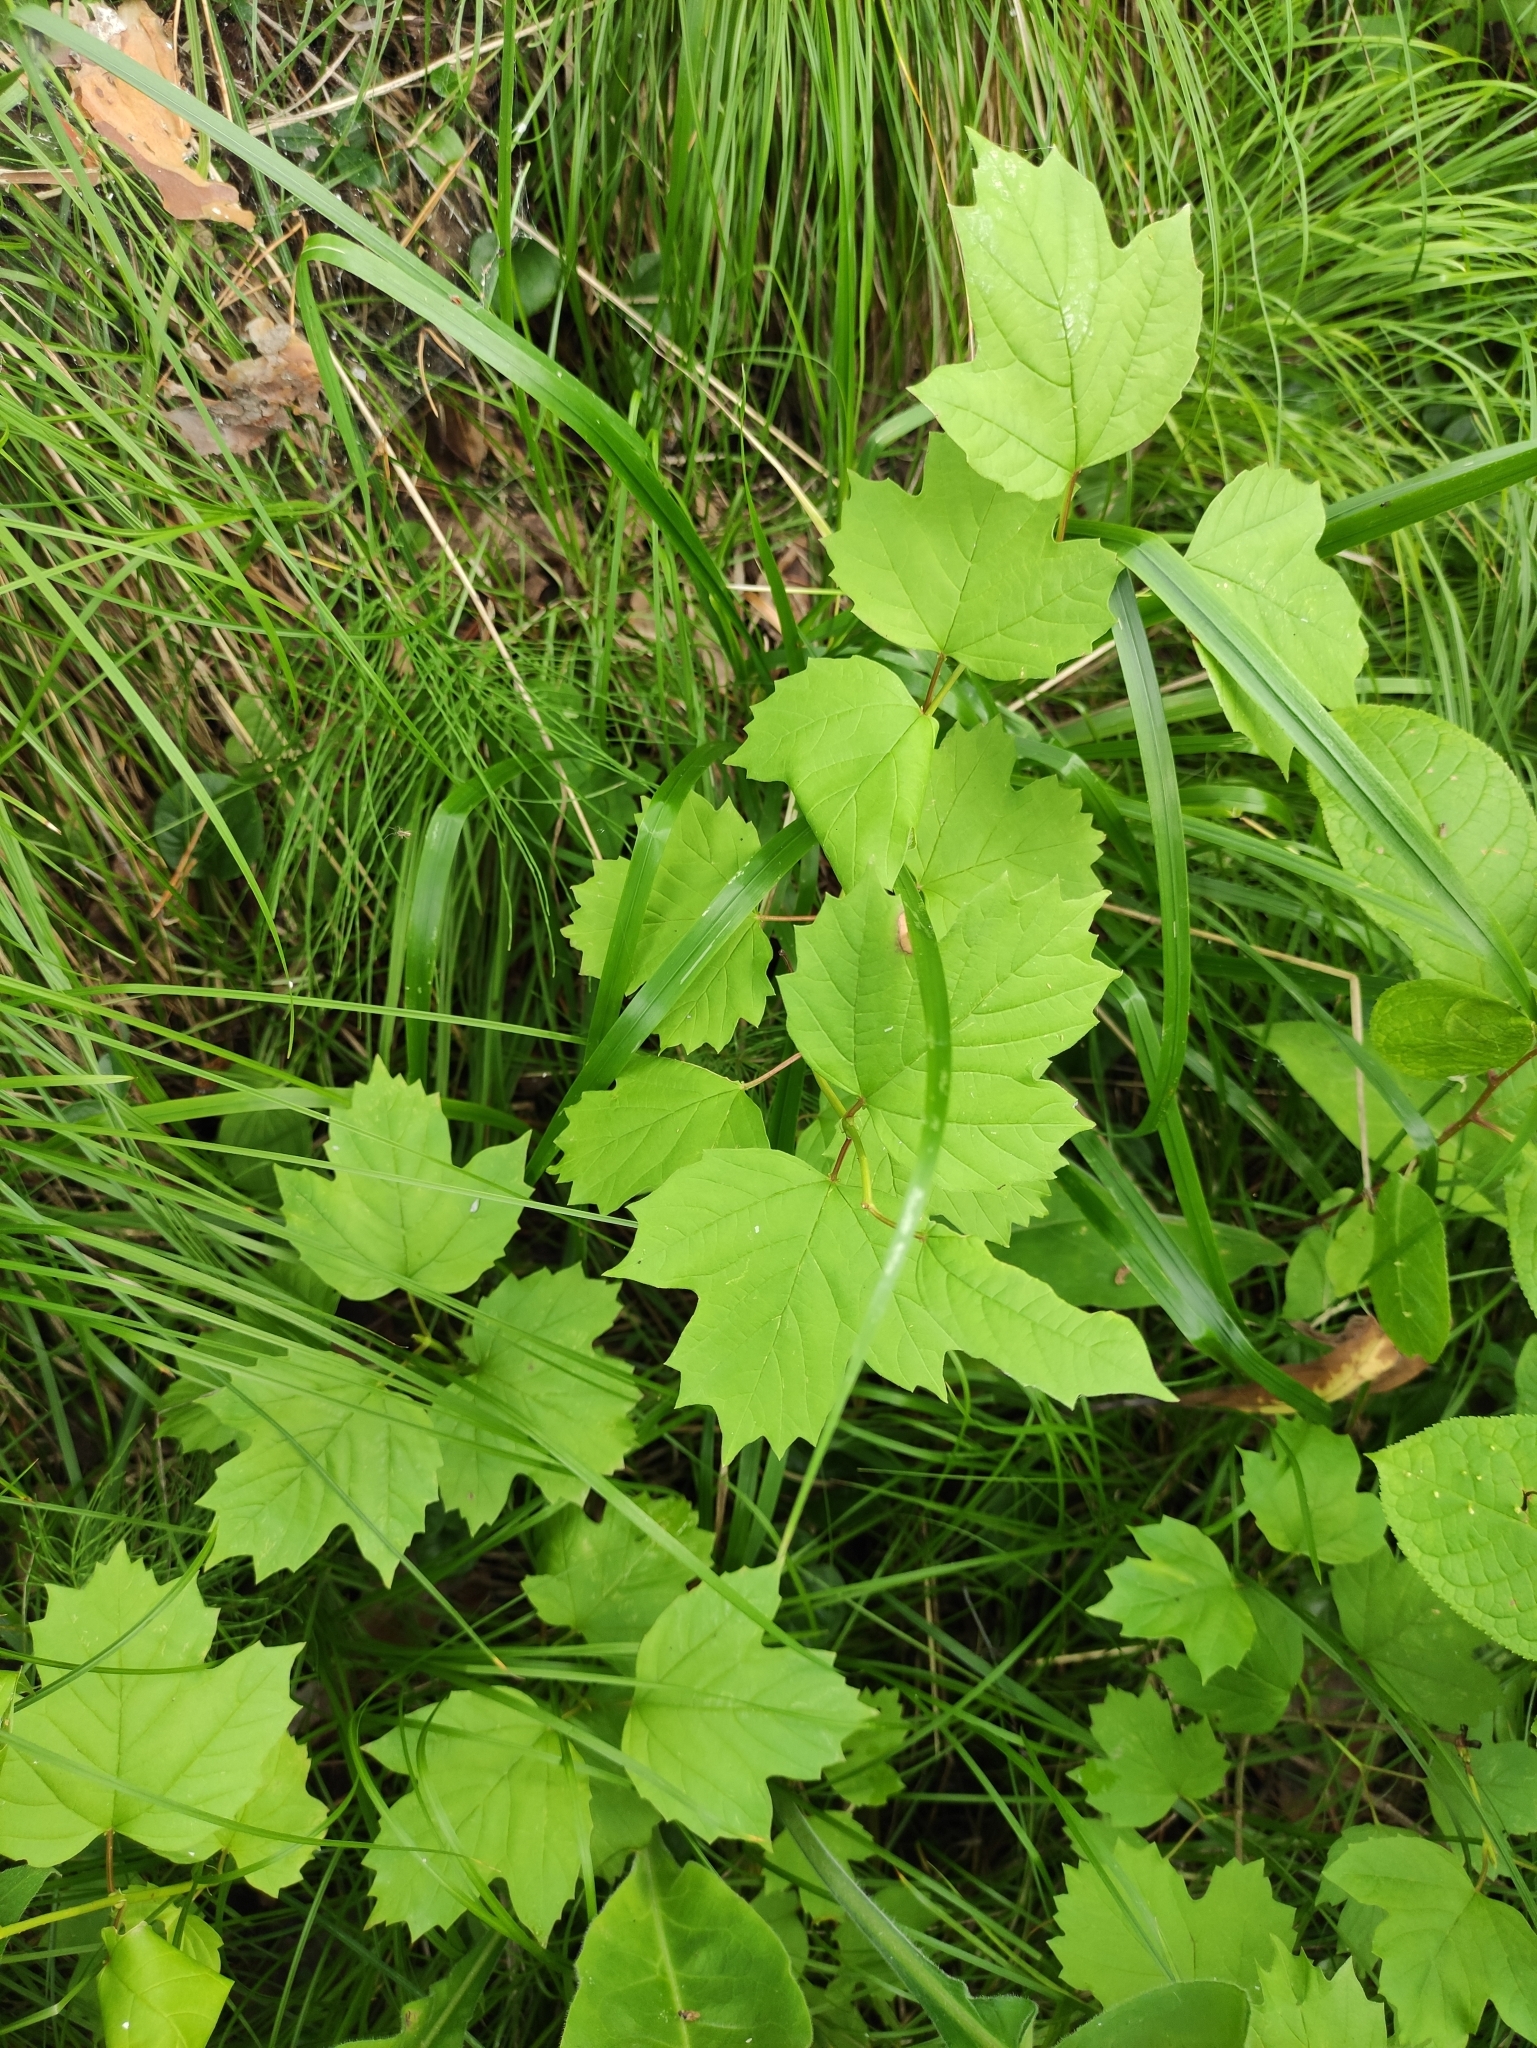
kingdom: Plantae
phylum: Tracheophyta
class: Magnoliopsida
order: Dipsacales
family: Viburnaceae
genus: Viburnum
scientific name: Viburnum opulus
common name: Guelder-rose
